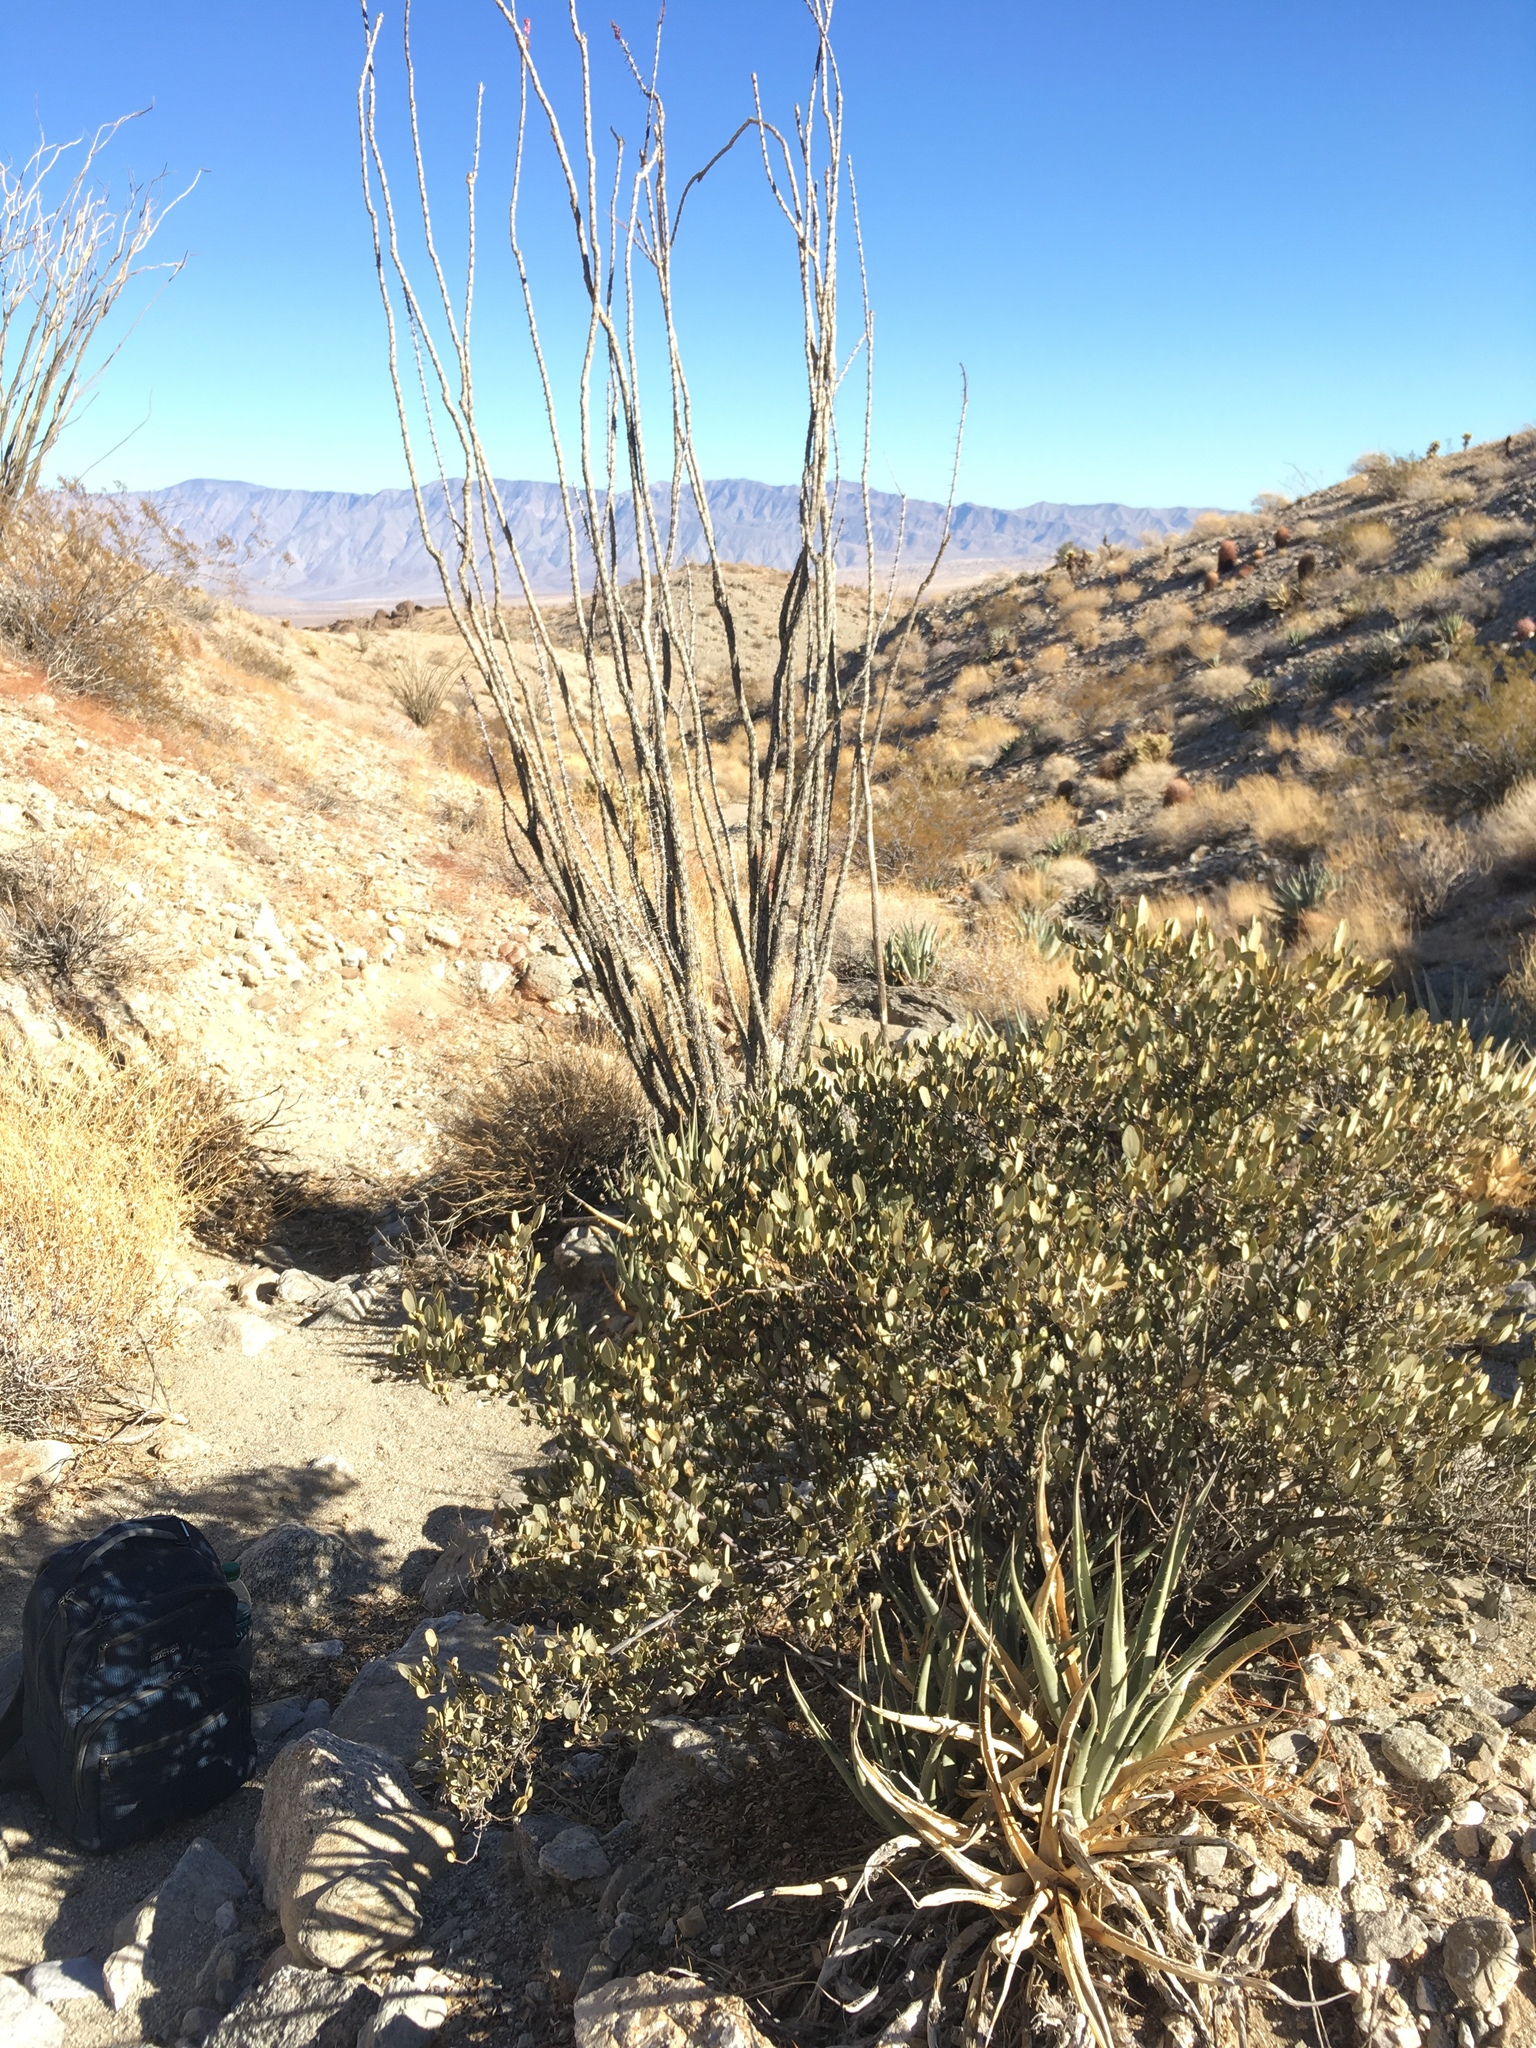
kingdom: Plantae
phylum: Tracheophyta
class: Magnoliopsida
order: Caryophyllales
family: Simmondsiaceae
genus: Simmondsia
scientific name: Simmondsia chinensis
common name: Jojoba
